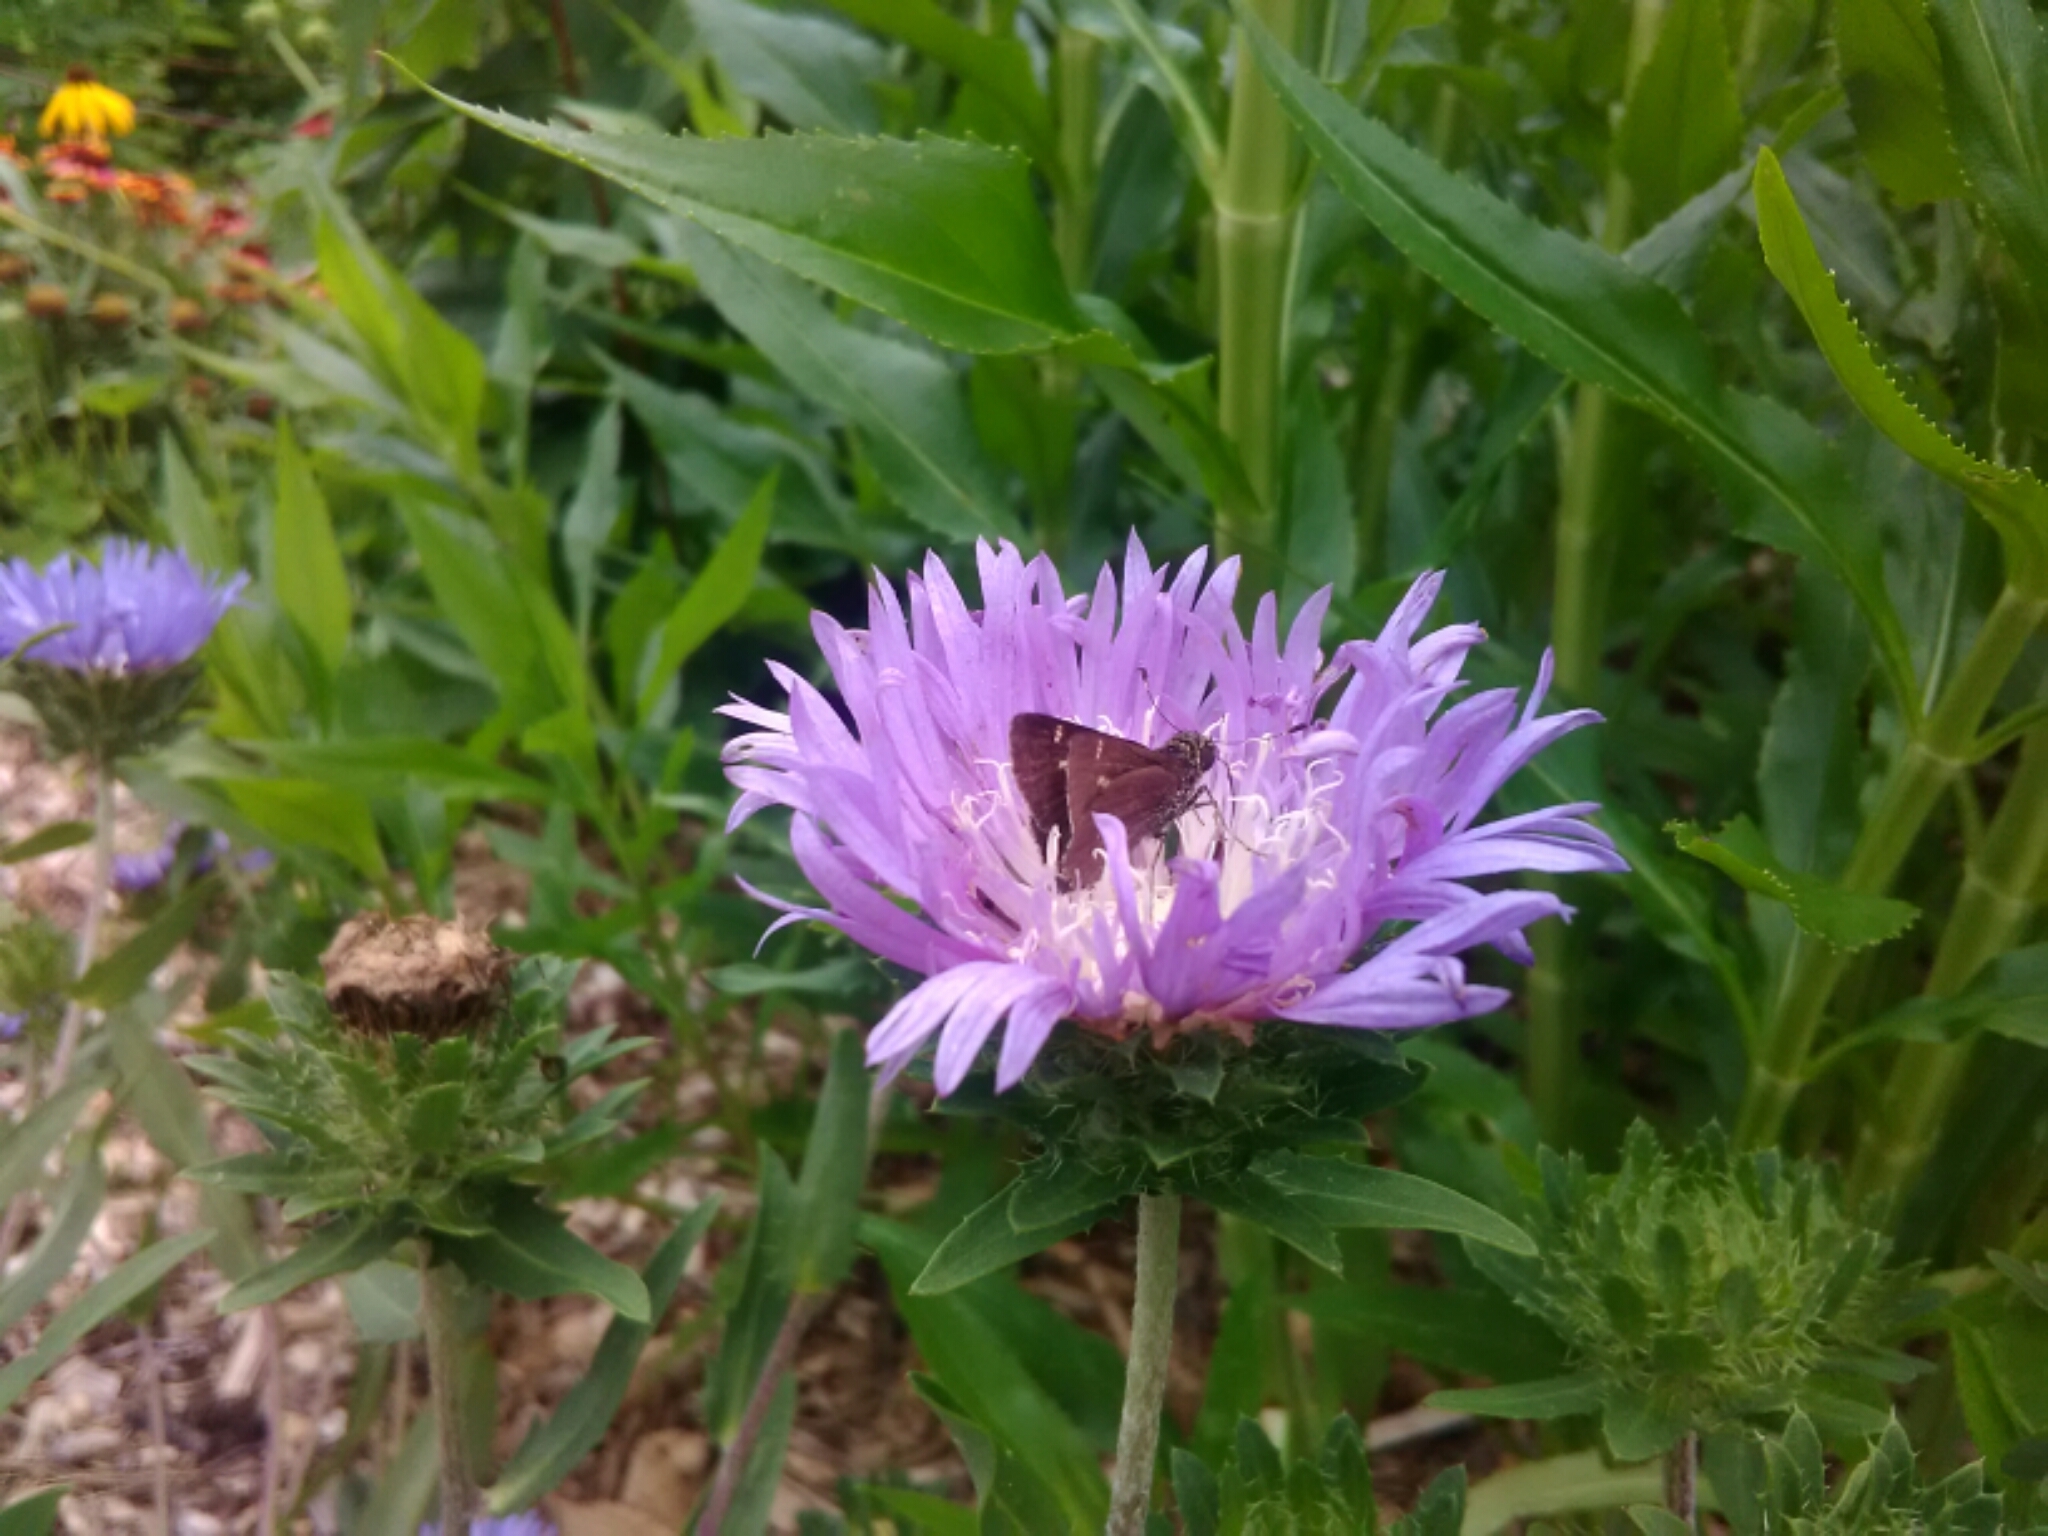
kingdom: Animalia
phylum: Arthropoda
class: Insecta
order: Lepidoptera
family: Hesperiidae
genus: Vernia
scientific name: Vernia verna
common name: Little glassywing
